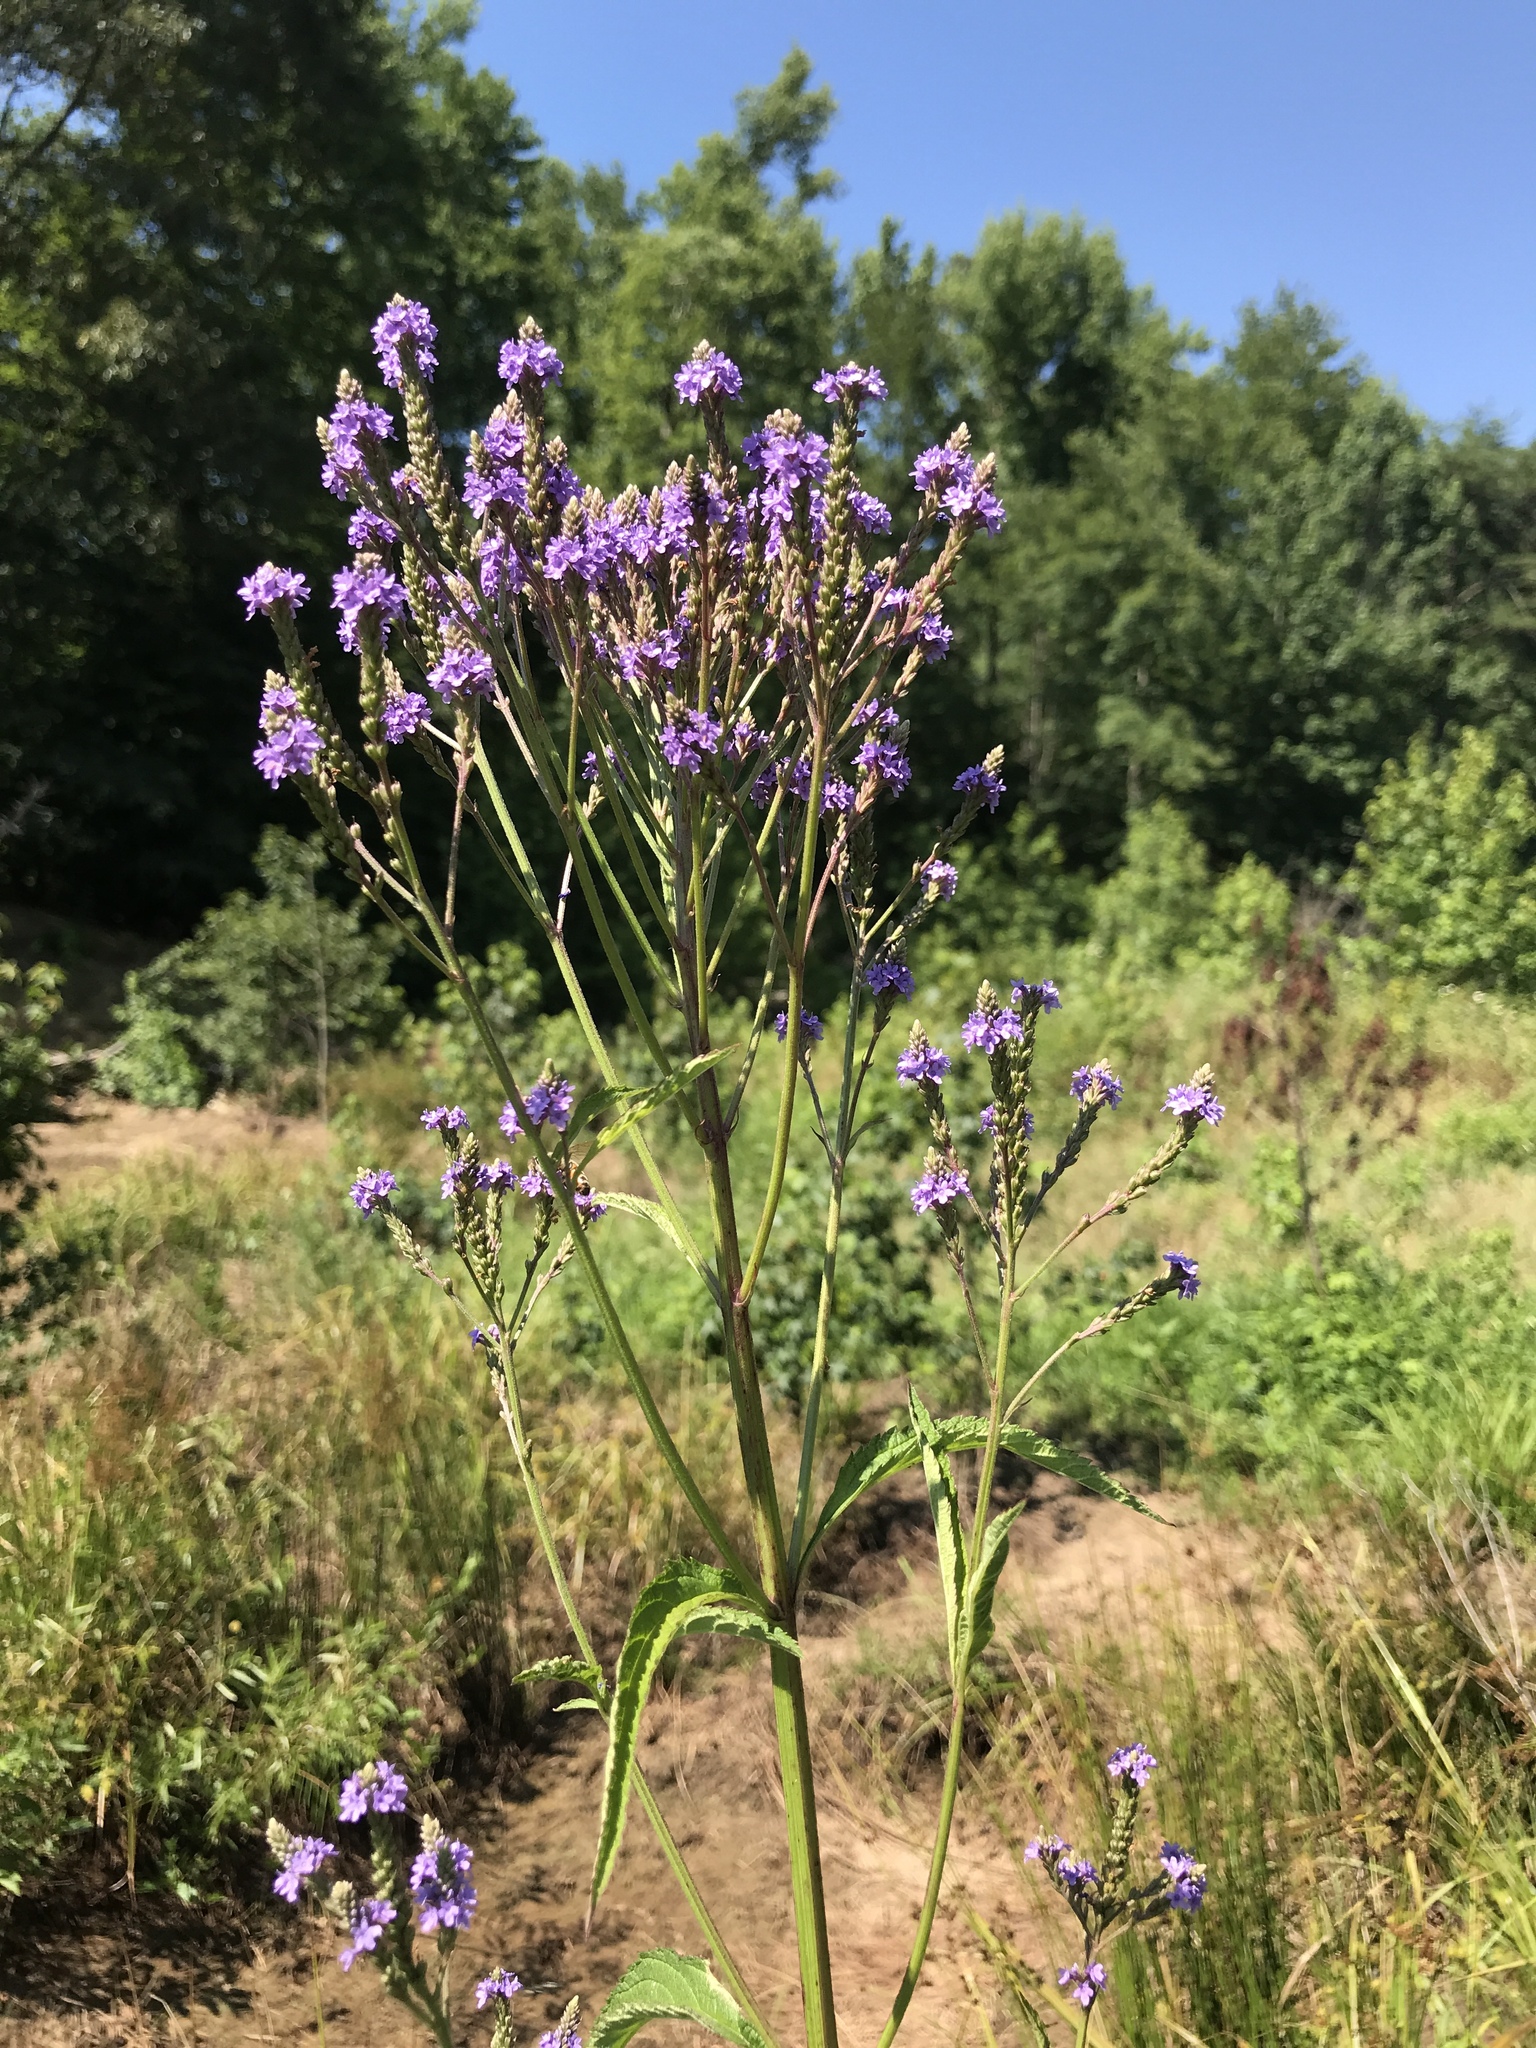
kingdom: Plantae
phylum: Tracheophyta
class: Magnoliopsida
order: Lamiales
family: Verbenaceae
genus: Verbena
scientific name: Verbena hastata
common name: American blue vervain
